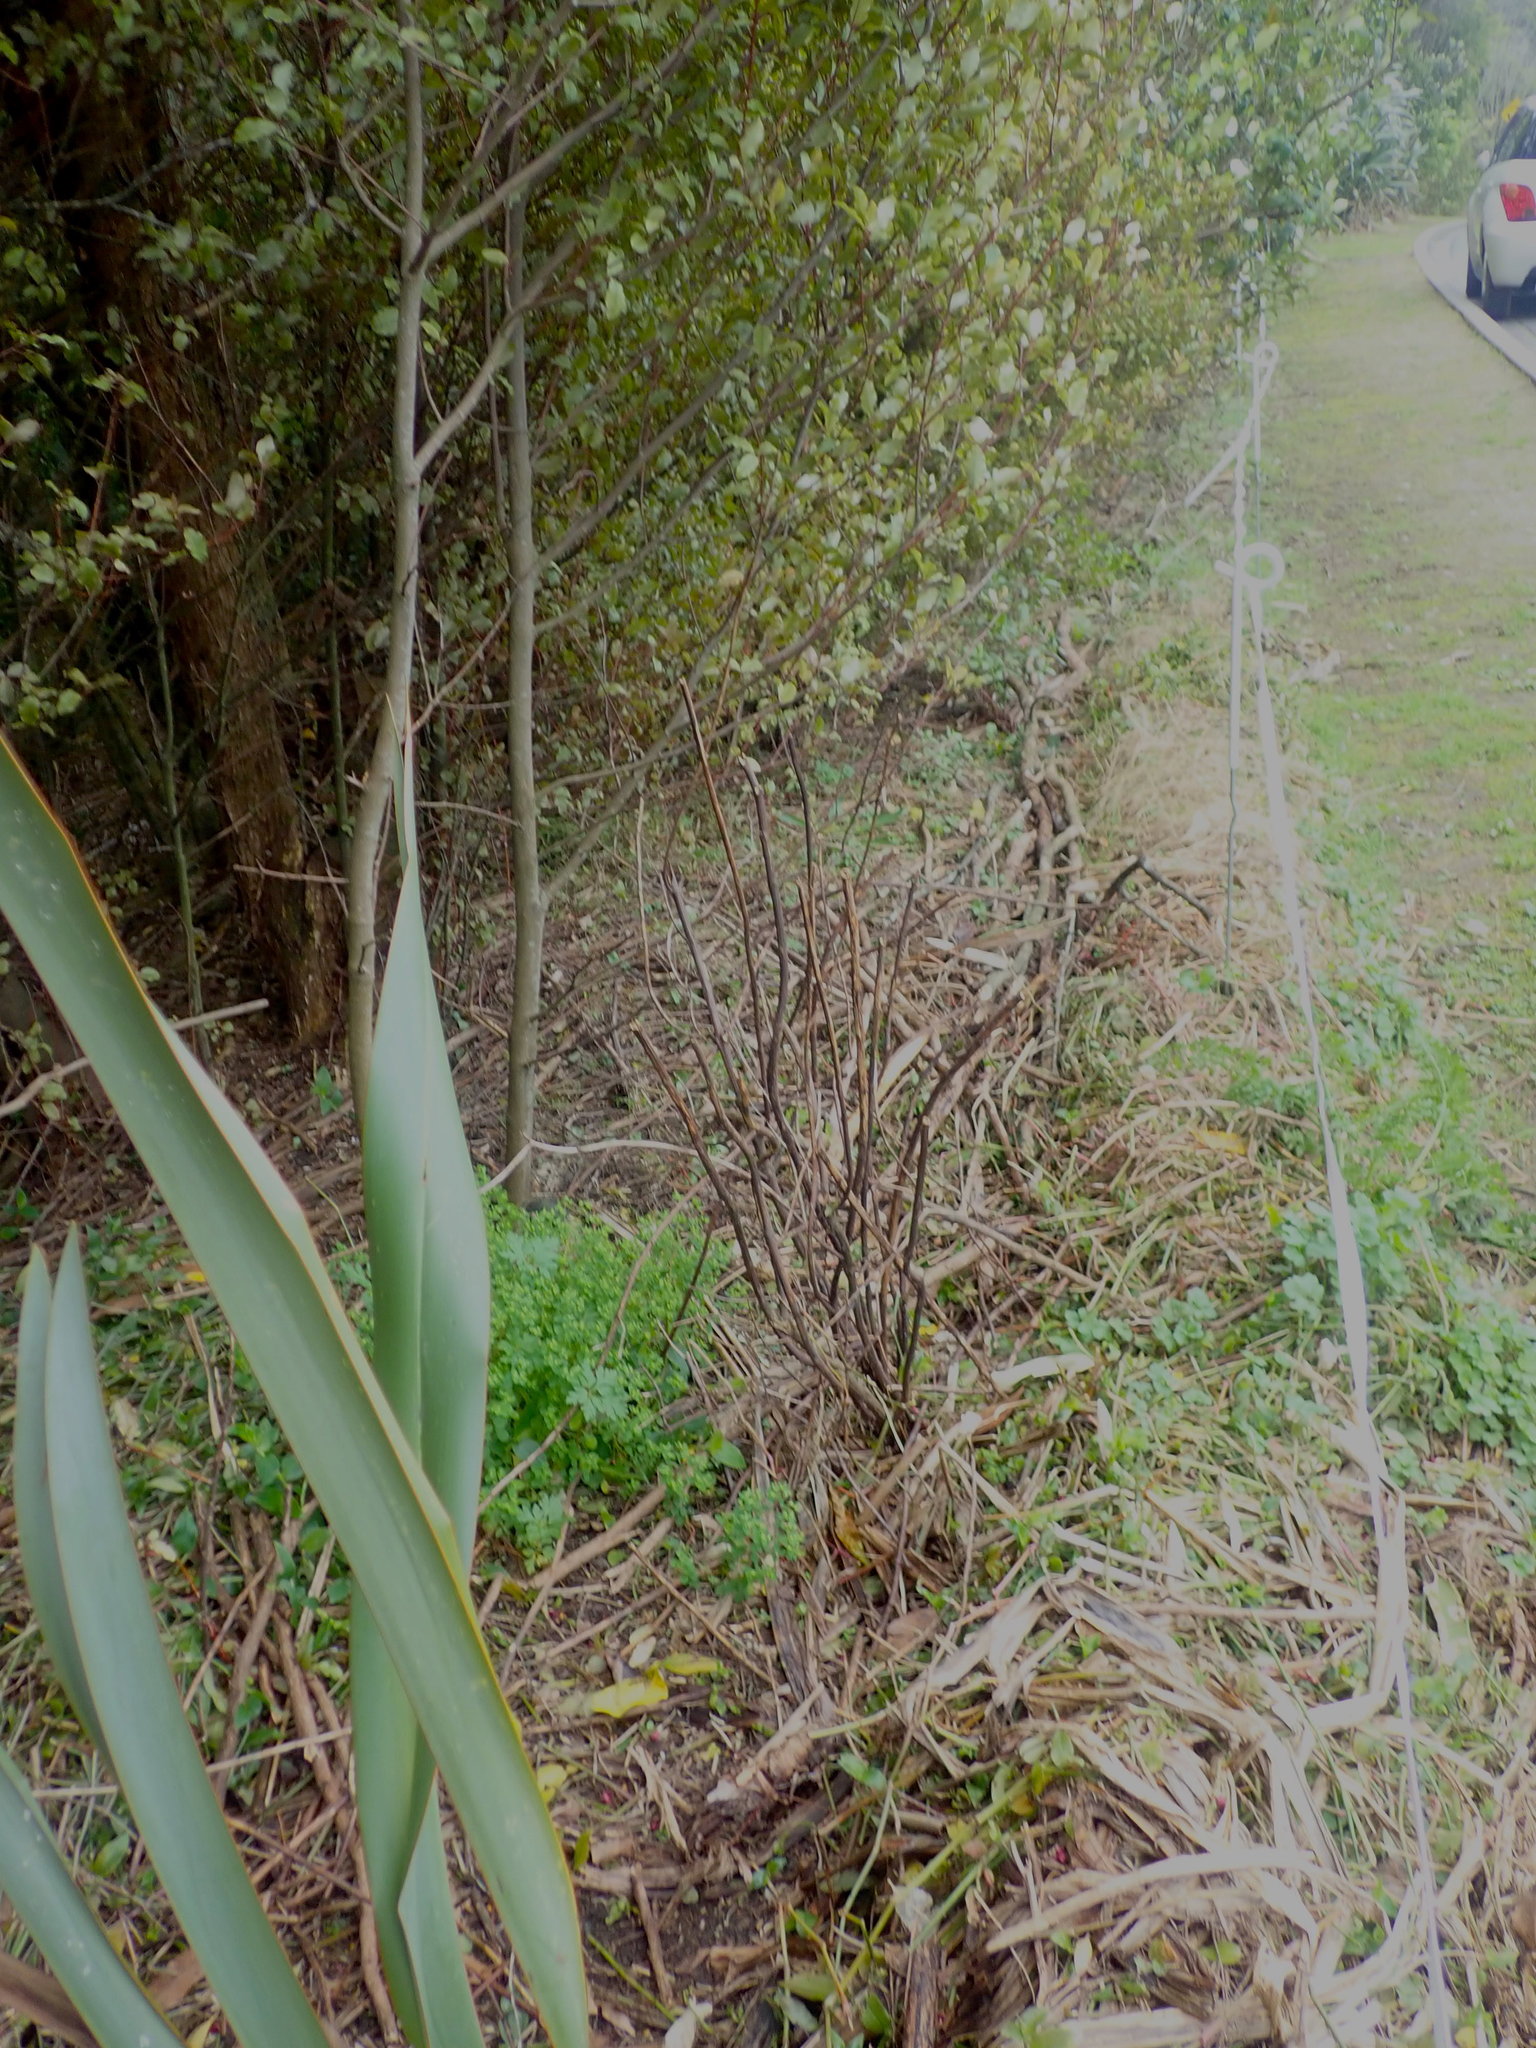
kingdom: Plantae
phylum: Tracheophyta
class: Magnoliopsida
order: Saxifragales
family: Haloragaceae
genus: Haloragis
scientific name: Haloragis erecta
